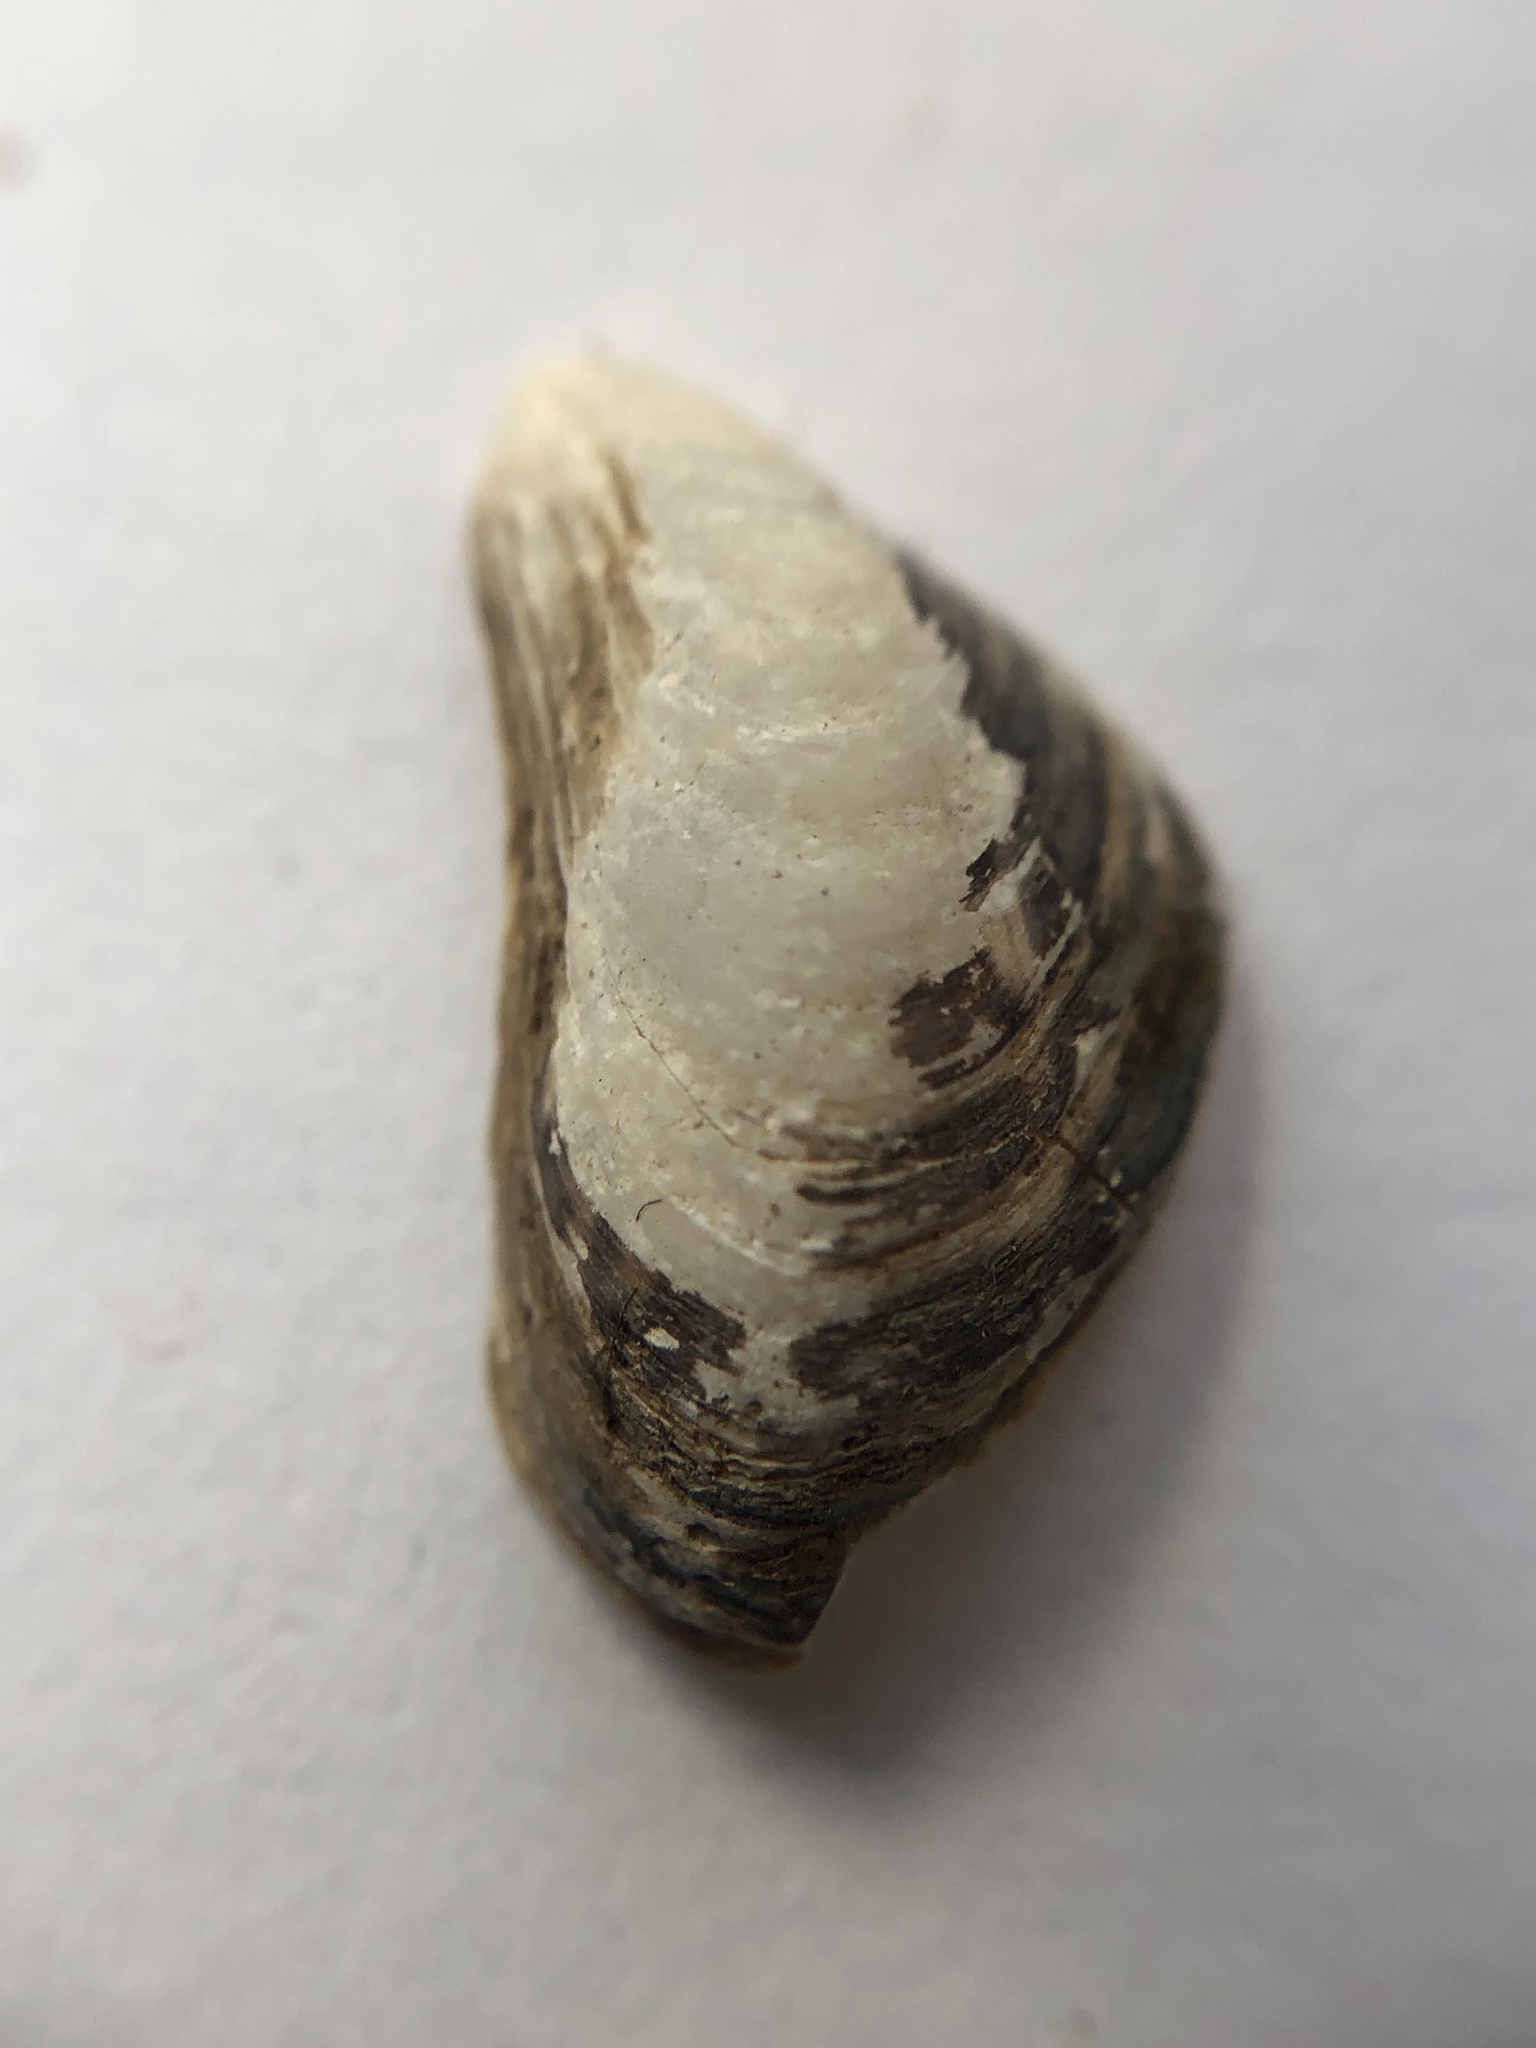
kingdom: Animalia
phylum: Mollusca
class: Bivalvia
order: Myida
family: Dreissenidae
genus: Dreissena
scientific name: Dreissena bugensis
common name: Quagga mussel
